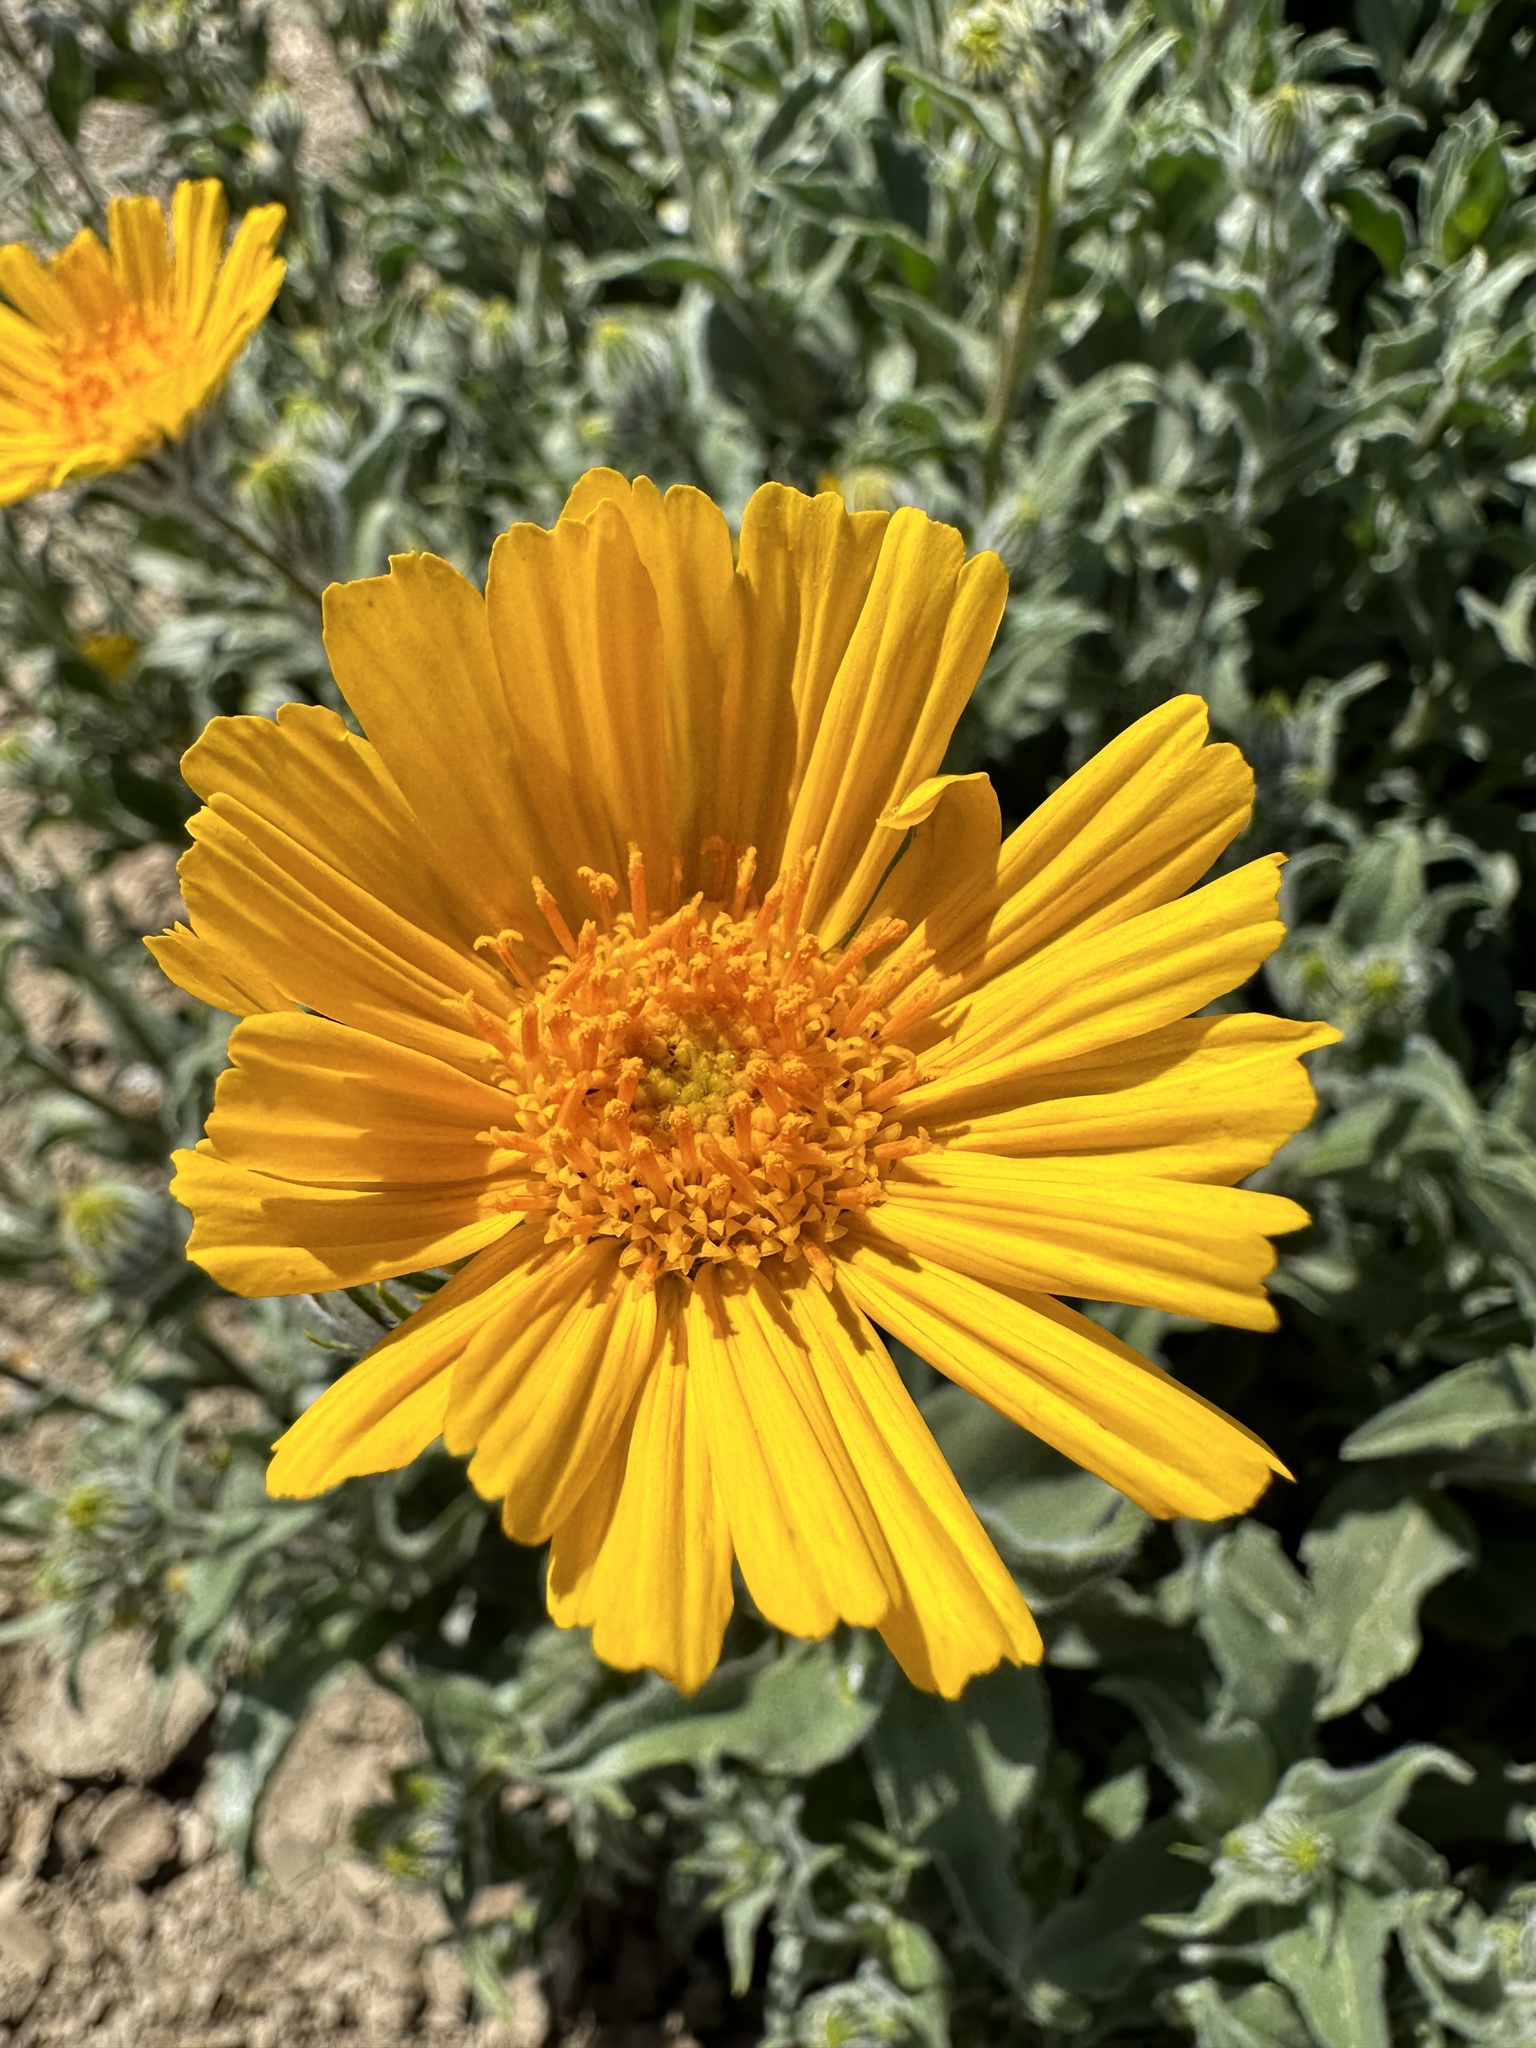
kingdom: Plantae
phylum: Tracheophyta
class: Magnoliopsida
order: Asterales
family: Asteraceae
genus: Geraea
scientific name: Geraea canescens
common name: Desert-gold
